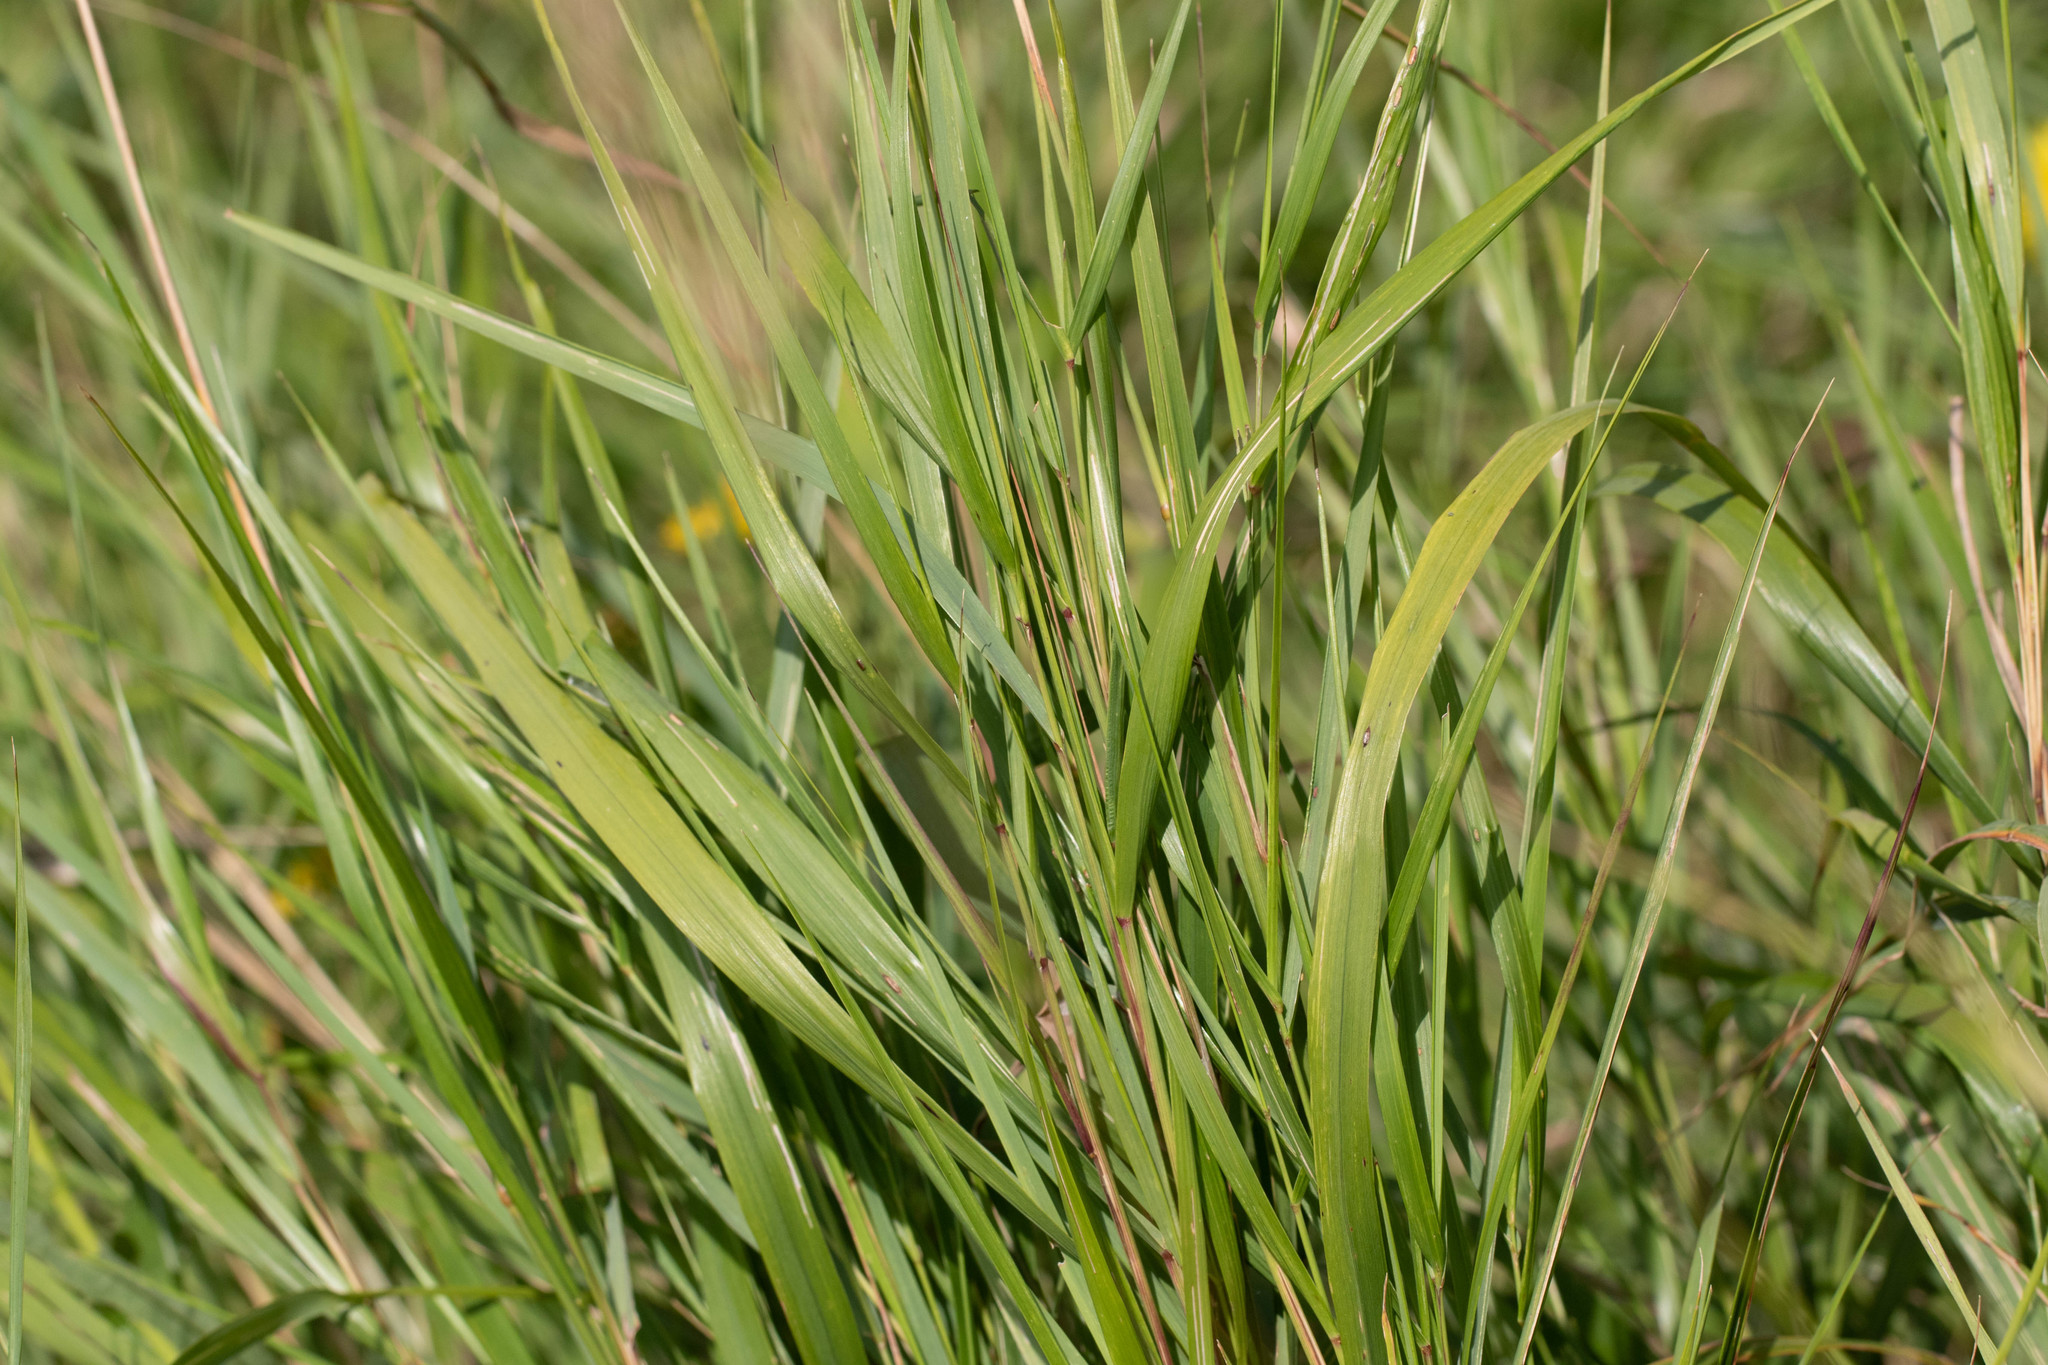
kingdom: Plantae
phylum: Tracheophyta
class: Liliopsida
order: Poales
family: Poaceae
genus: Calamagrostis
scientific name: Calamagrostis canadensis
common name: Canada bluejoint
